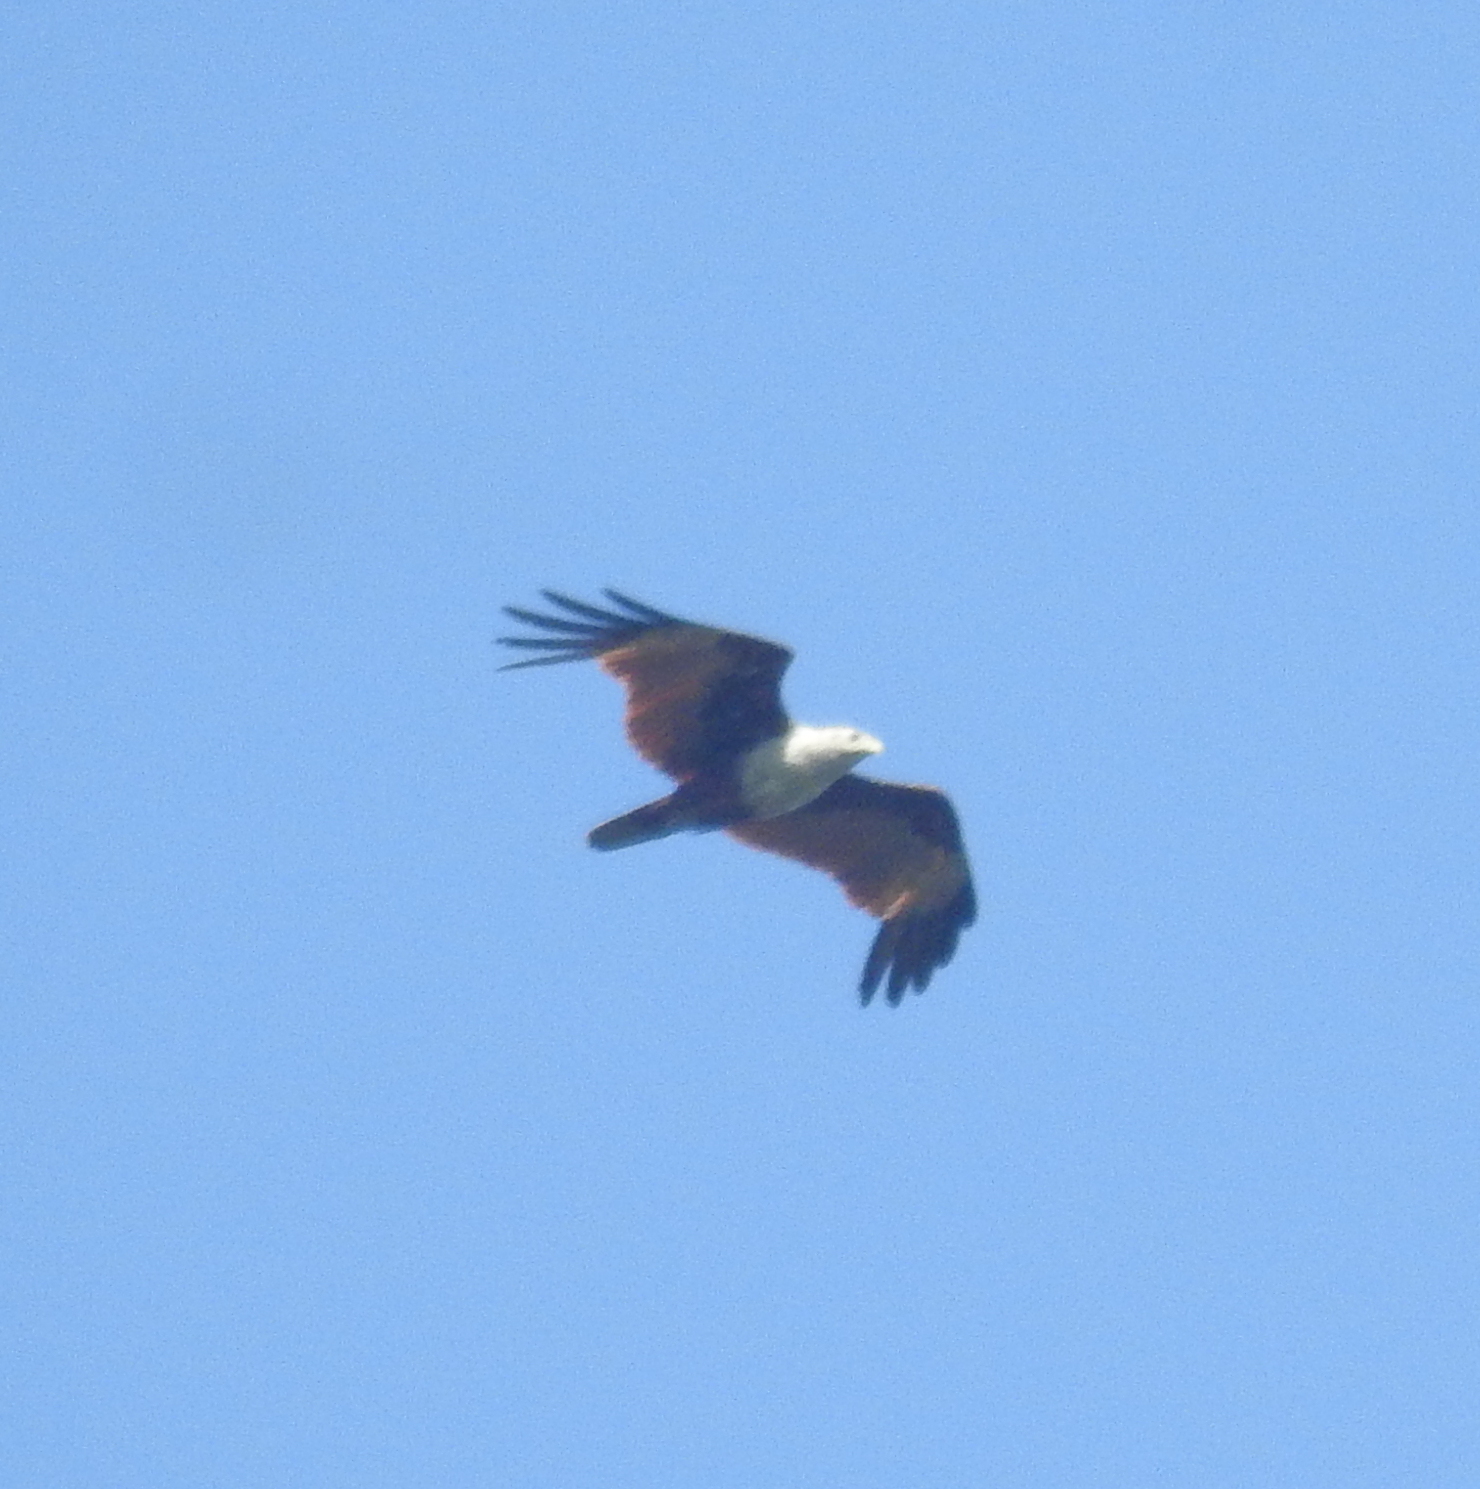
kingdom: Animalia
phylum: Chordata
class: Aves
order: Accipitriformes
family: Accipitridae
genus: Haliastur
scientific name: Haliastur indus
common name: Brahminy kite
